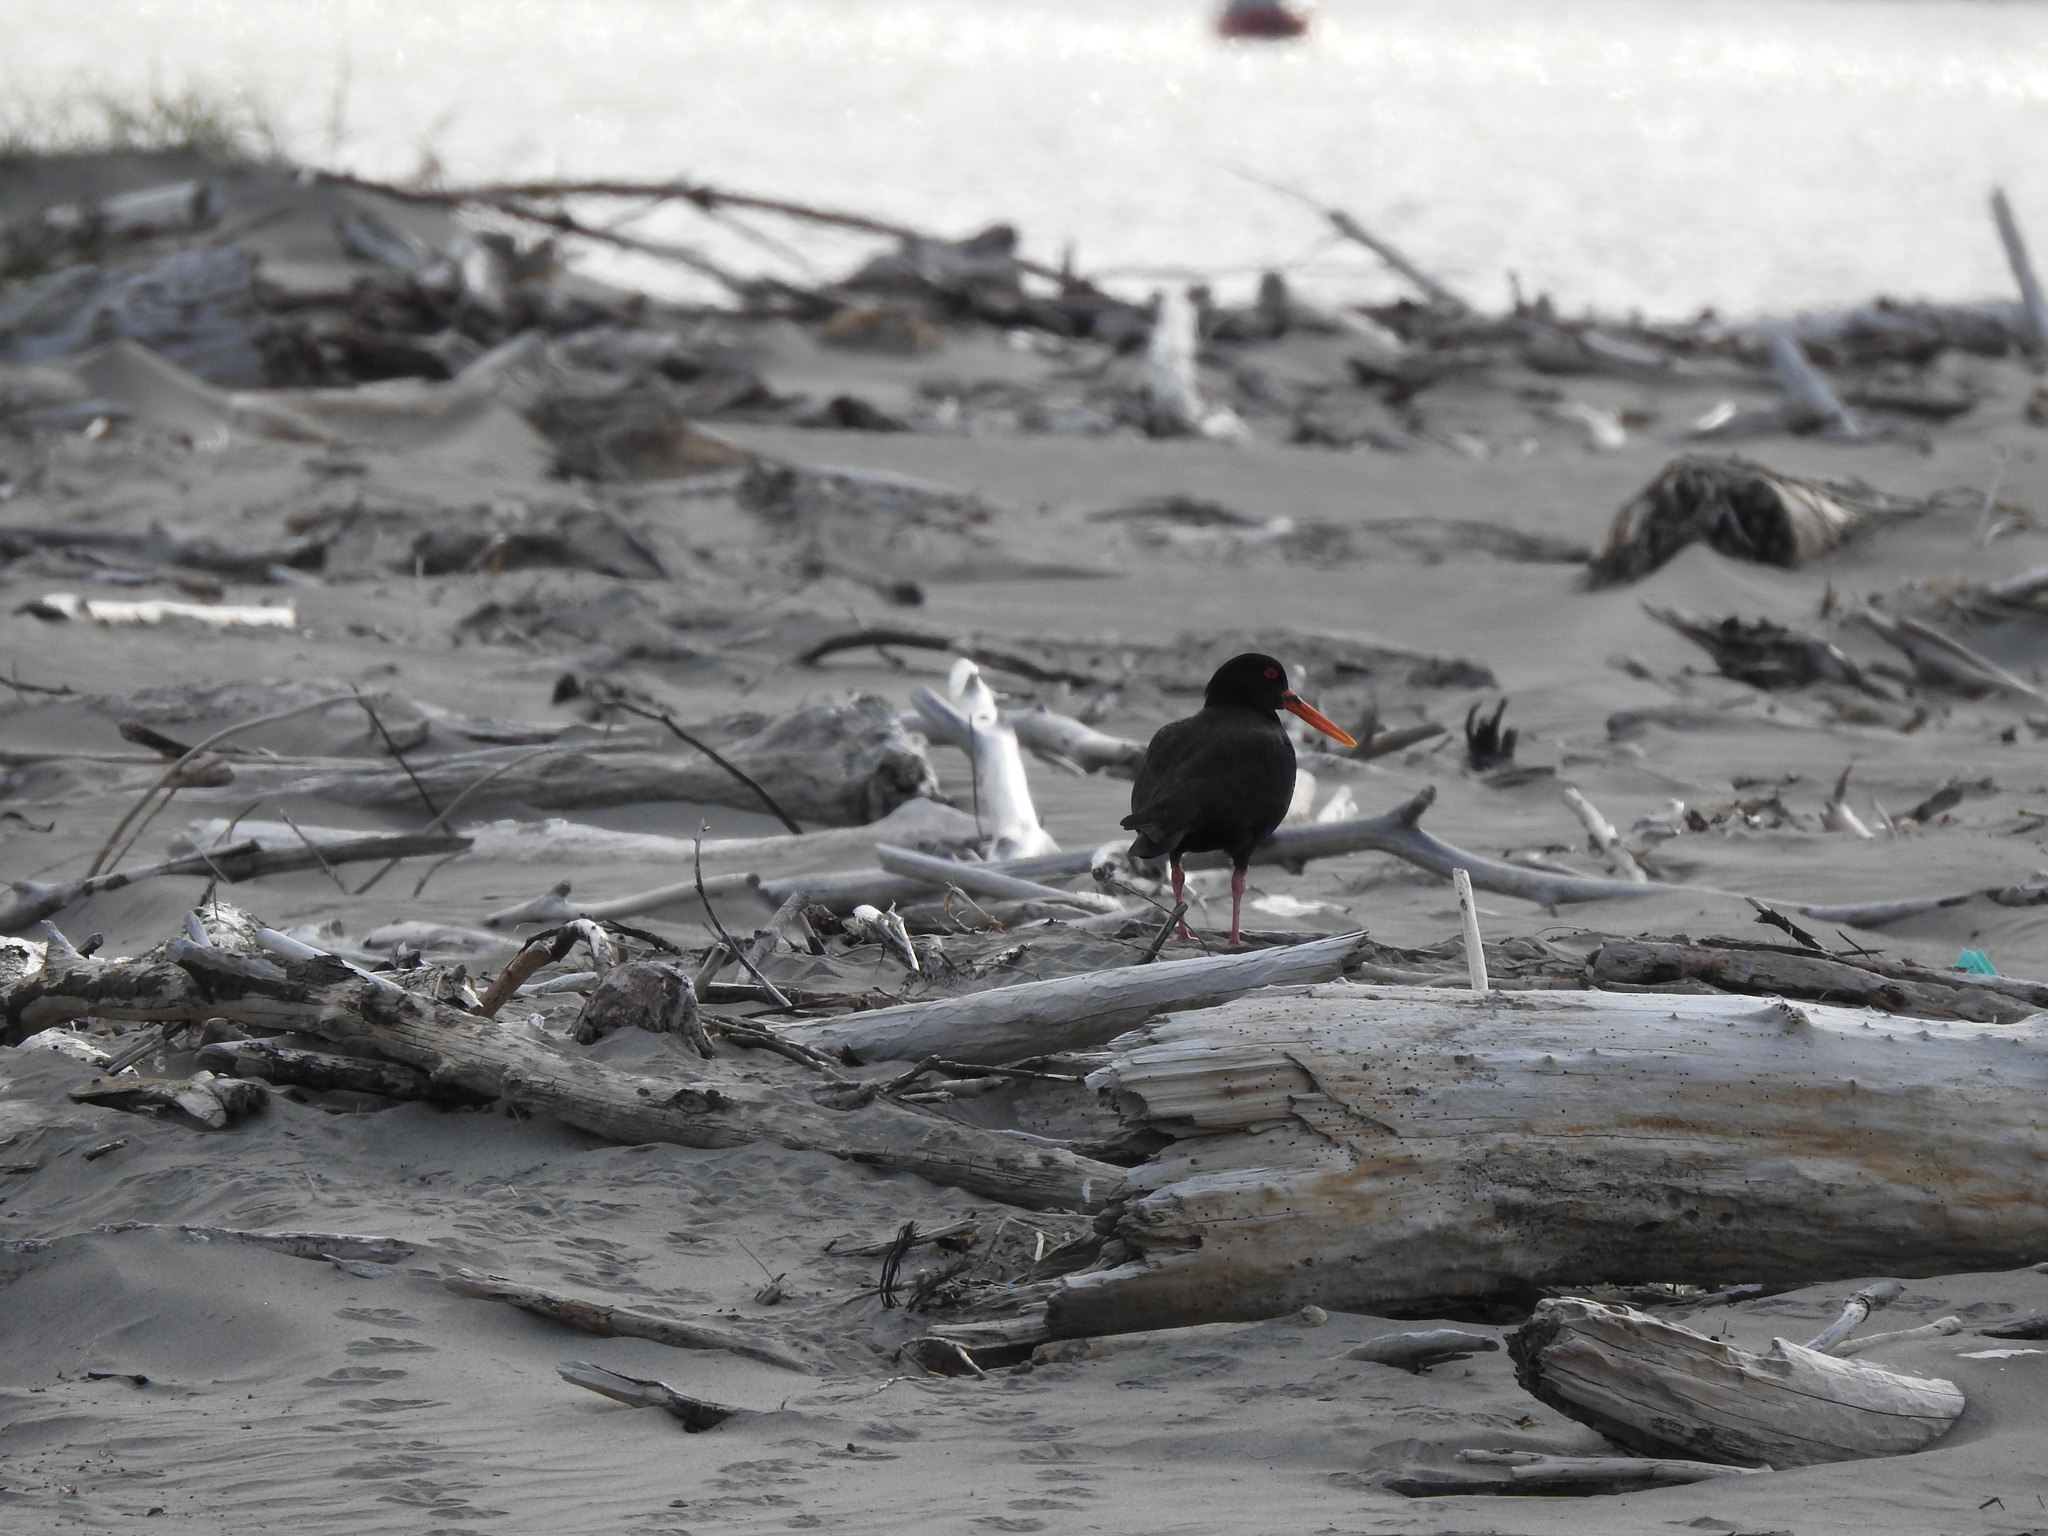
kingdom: Animalia
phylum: Chordata
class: Aves
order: Charadriiformes
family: Haematopodidae
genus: Haematopus
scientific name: Haematopus unicolor
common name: Variable oystercatcher
